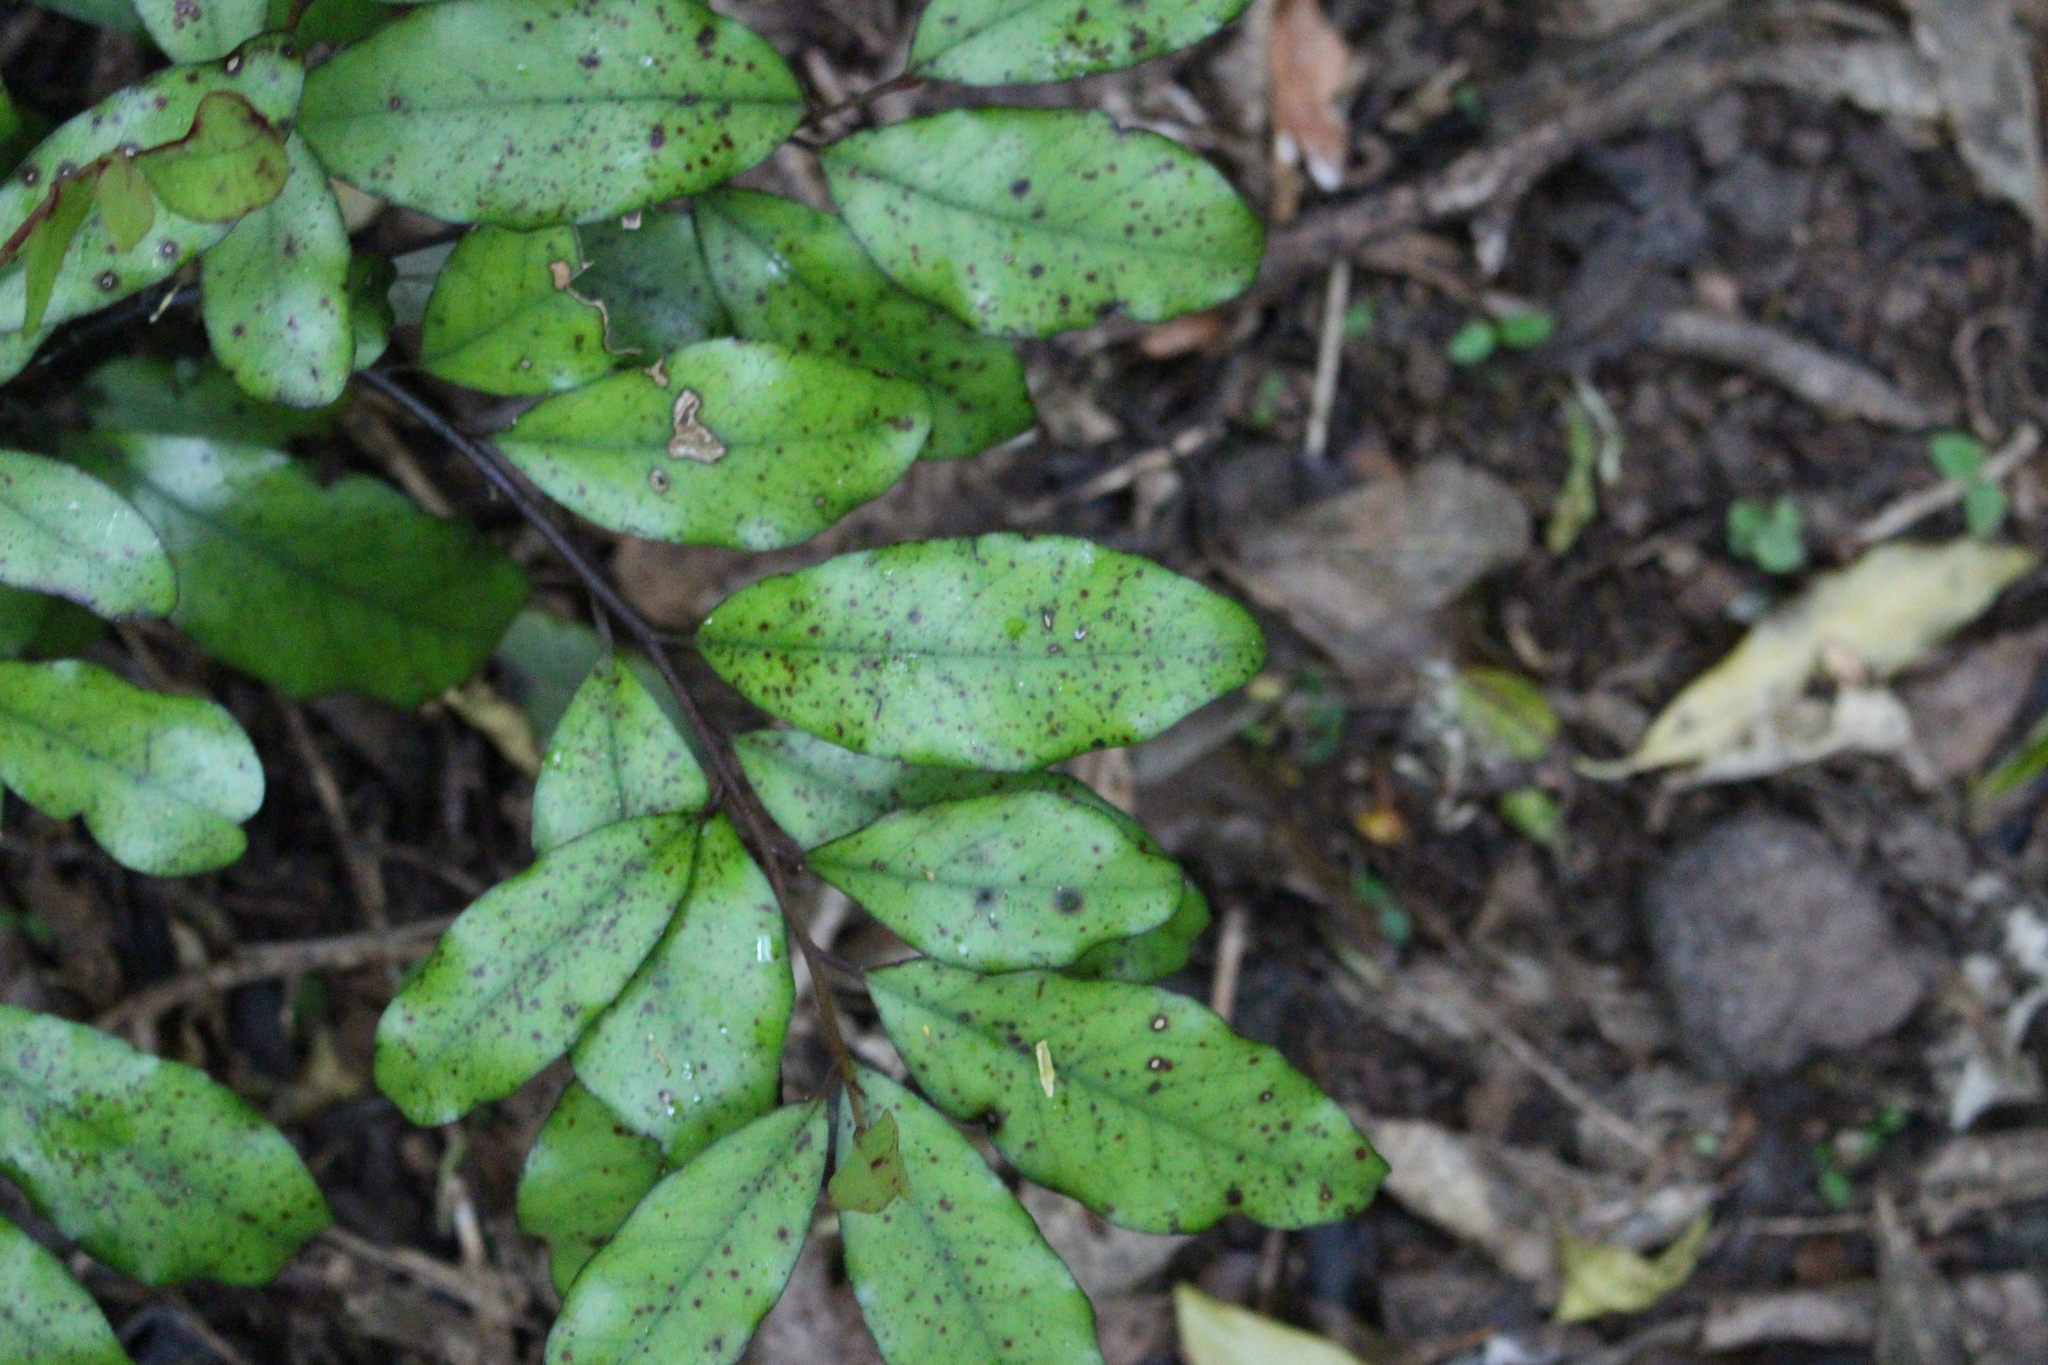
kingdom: Plantae
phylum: Tracheophyta
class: Magnoliopsida
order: Canellales
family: Winteraceae
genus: Pseudowintera
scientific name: Pseudowintera colorata
